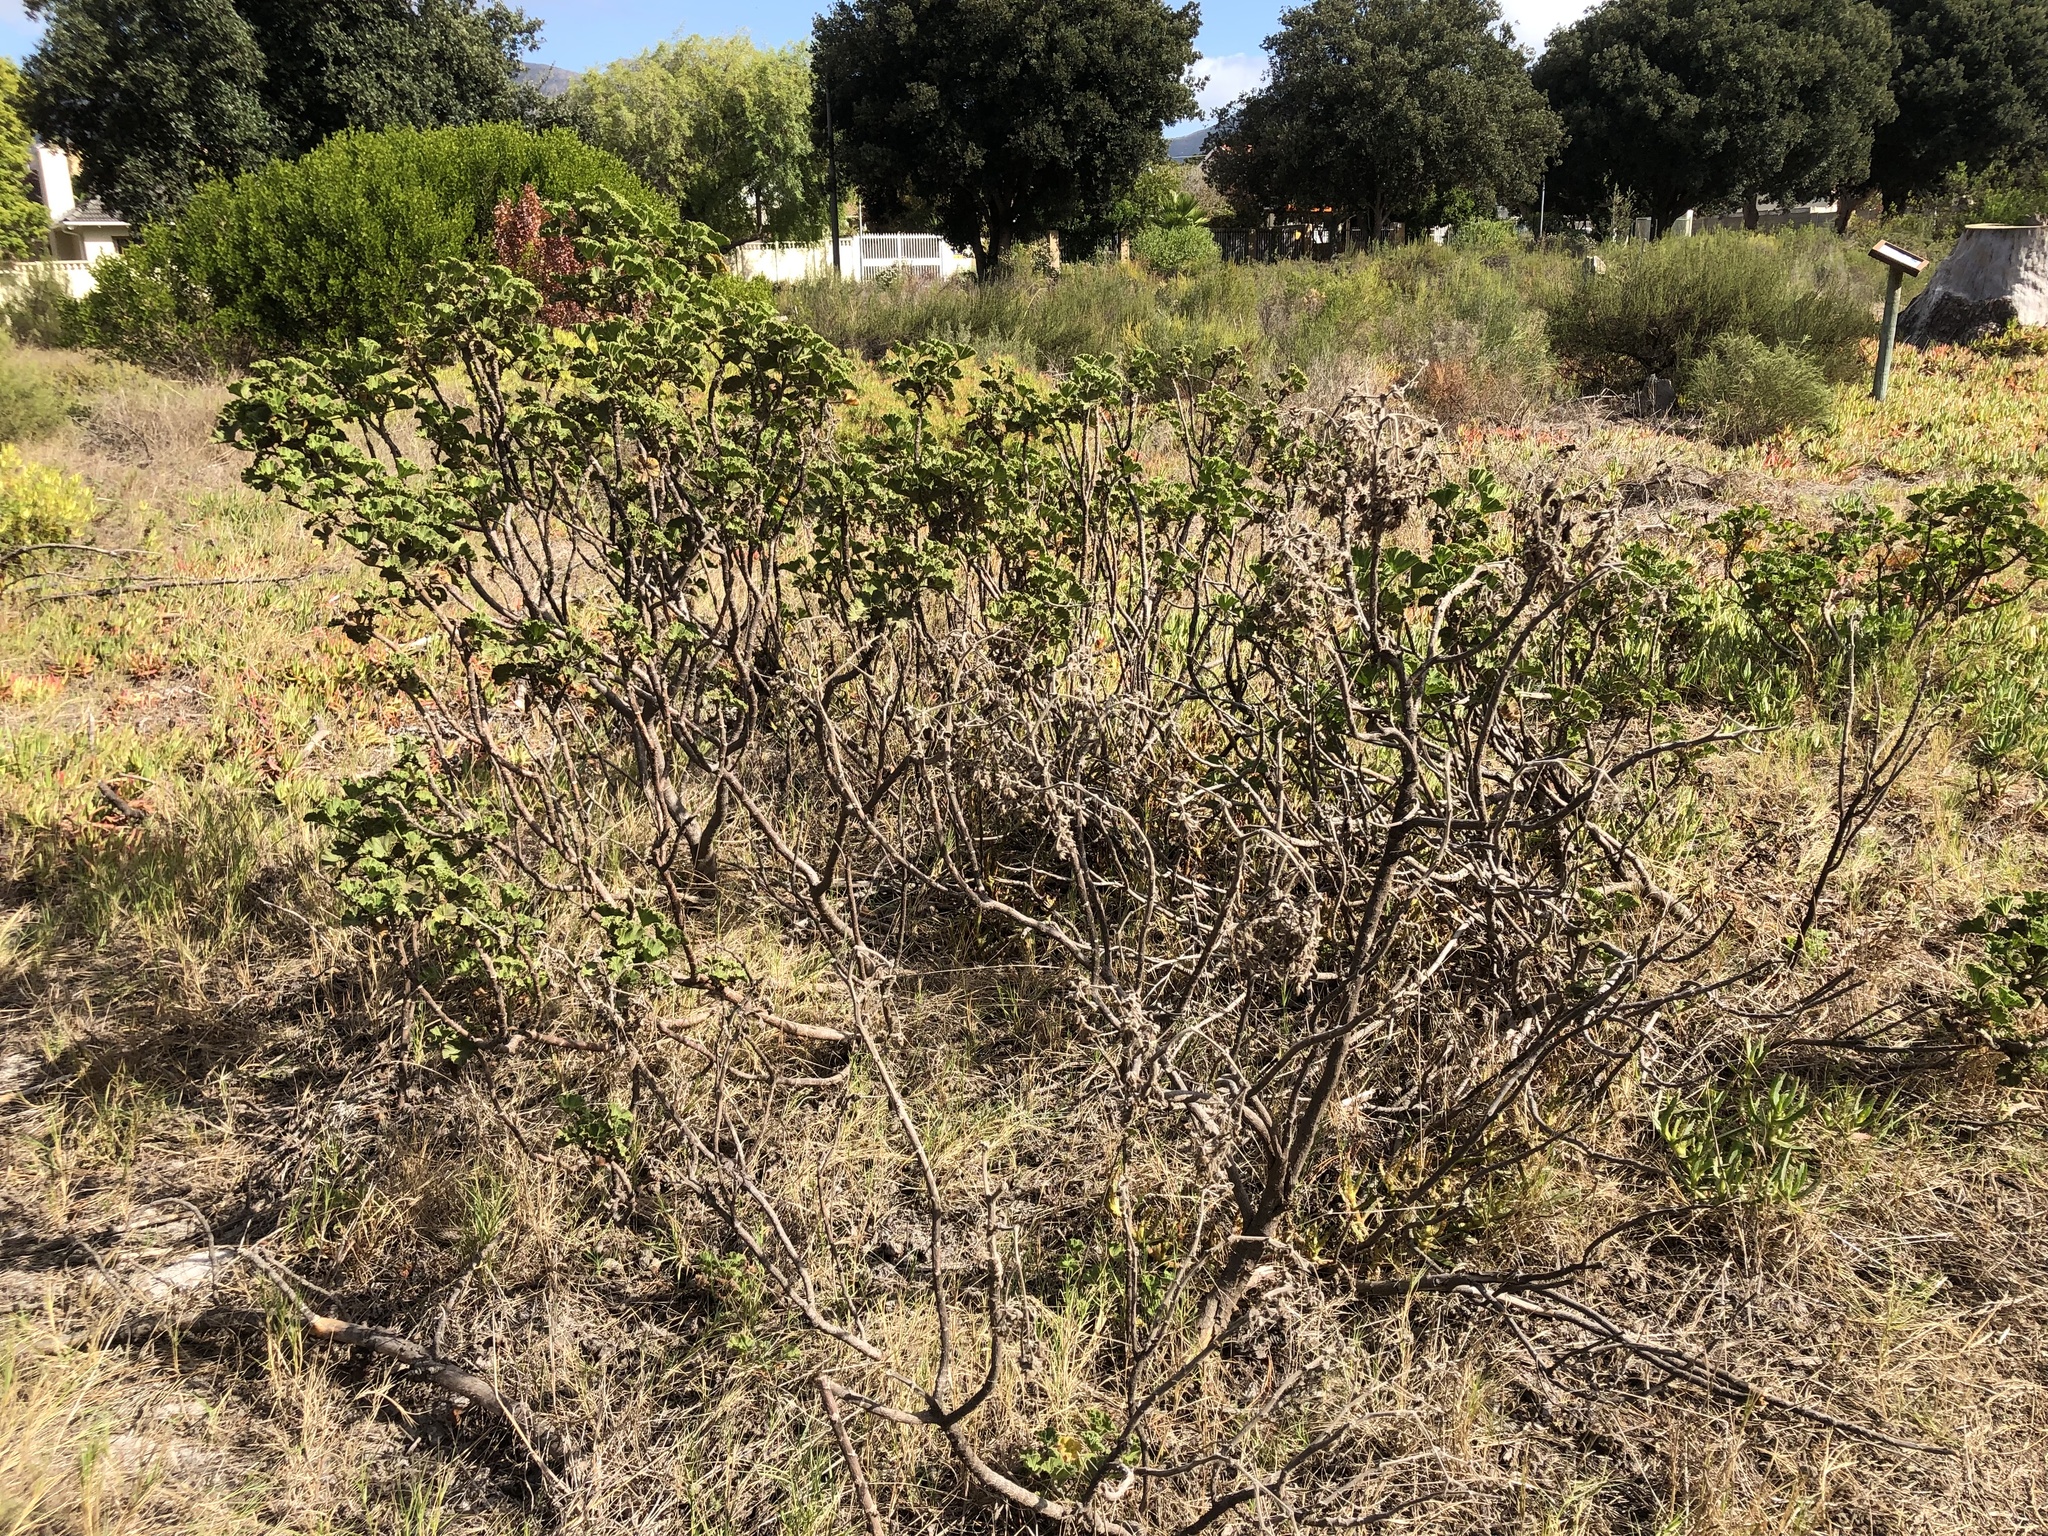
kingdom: Plantae
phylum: Tracheophyta
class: Magnoliopsida
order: Geraniales
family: Geraniaceae
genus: Pelargonium
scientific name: Pelargonium cucullatum
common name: Tree pelargonium
